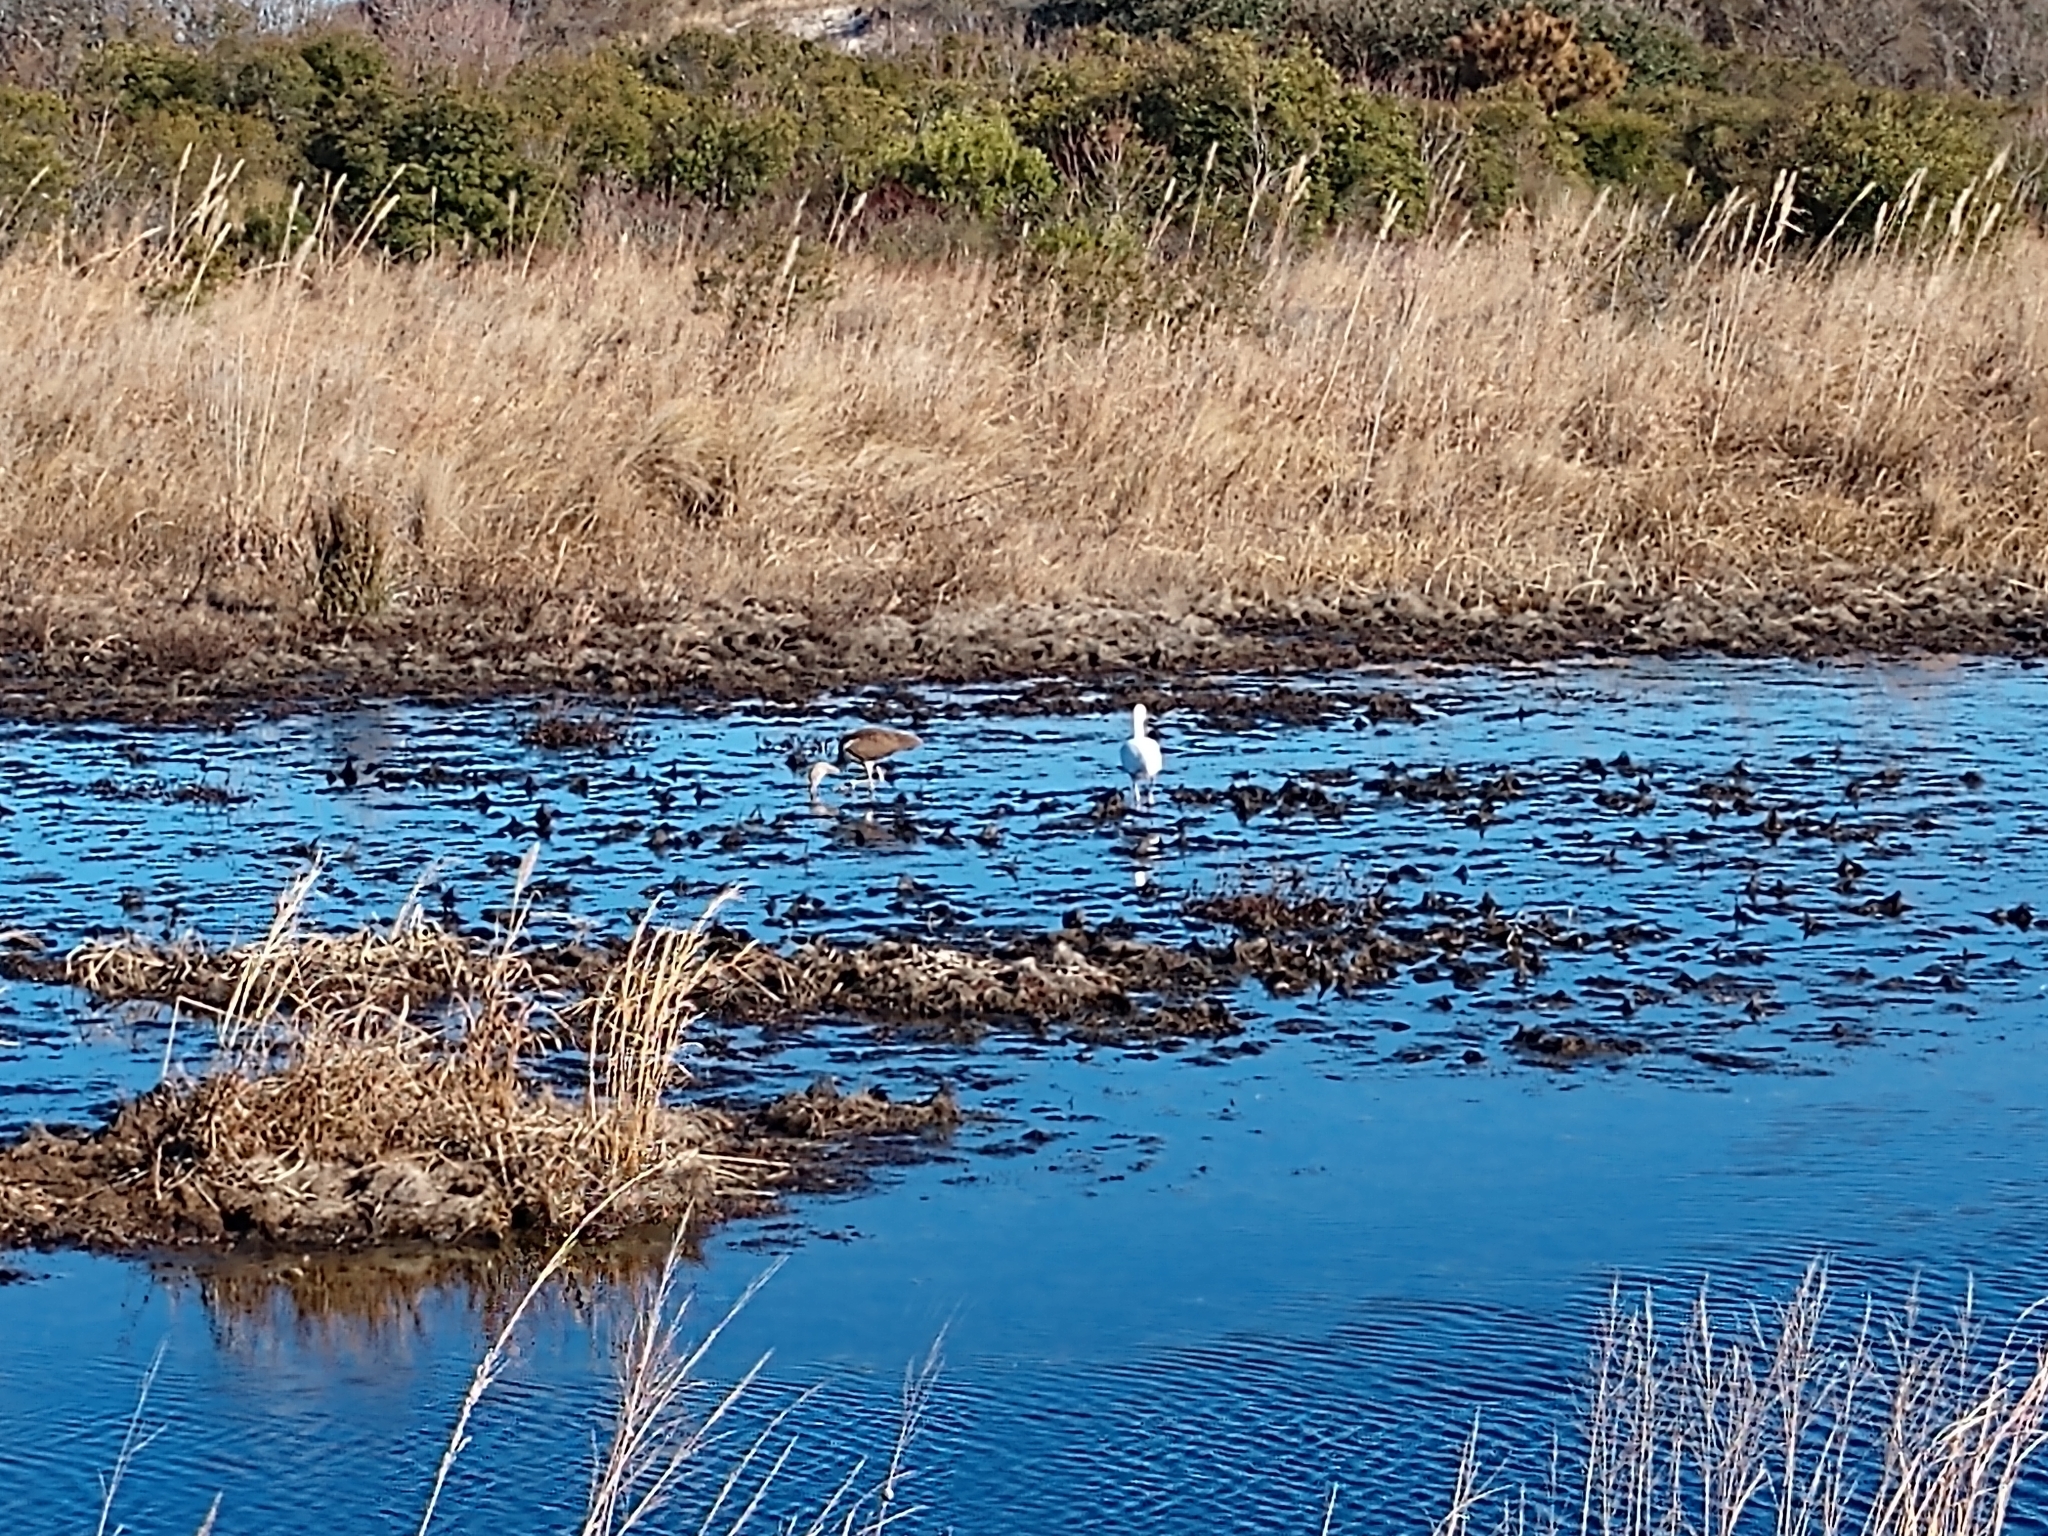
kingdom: Animalia
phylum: Chordata
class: Aves
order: Pelecaniformes
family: Threskiornithidae
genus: Eudocimus
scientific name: Eudocimus albus
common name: White ibis
